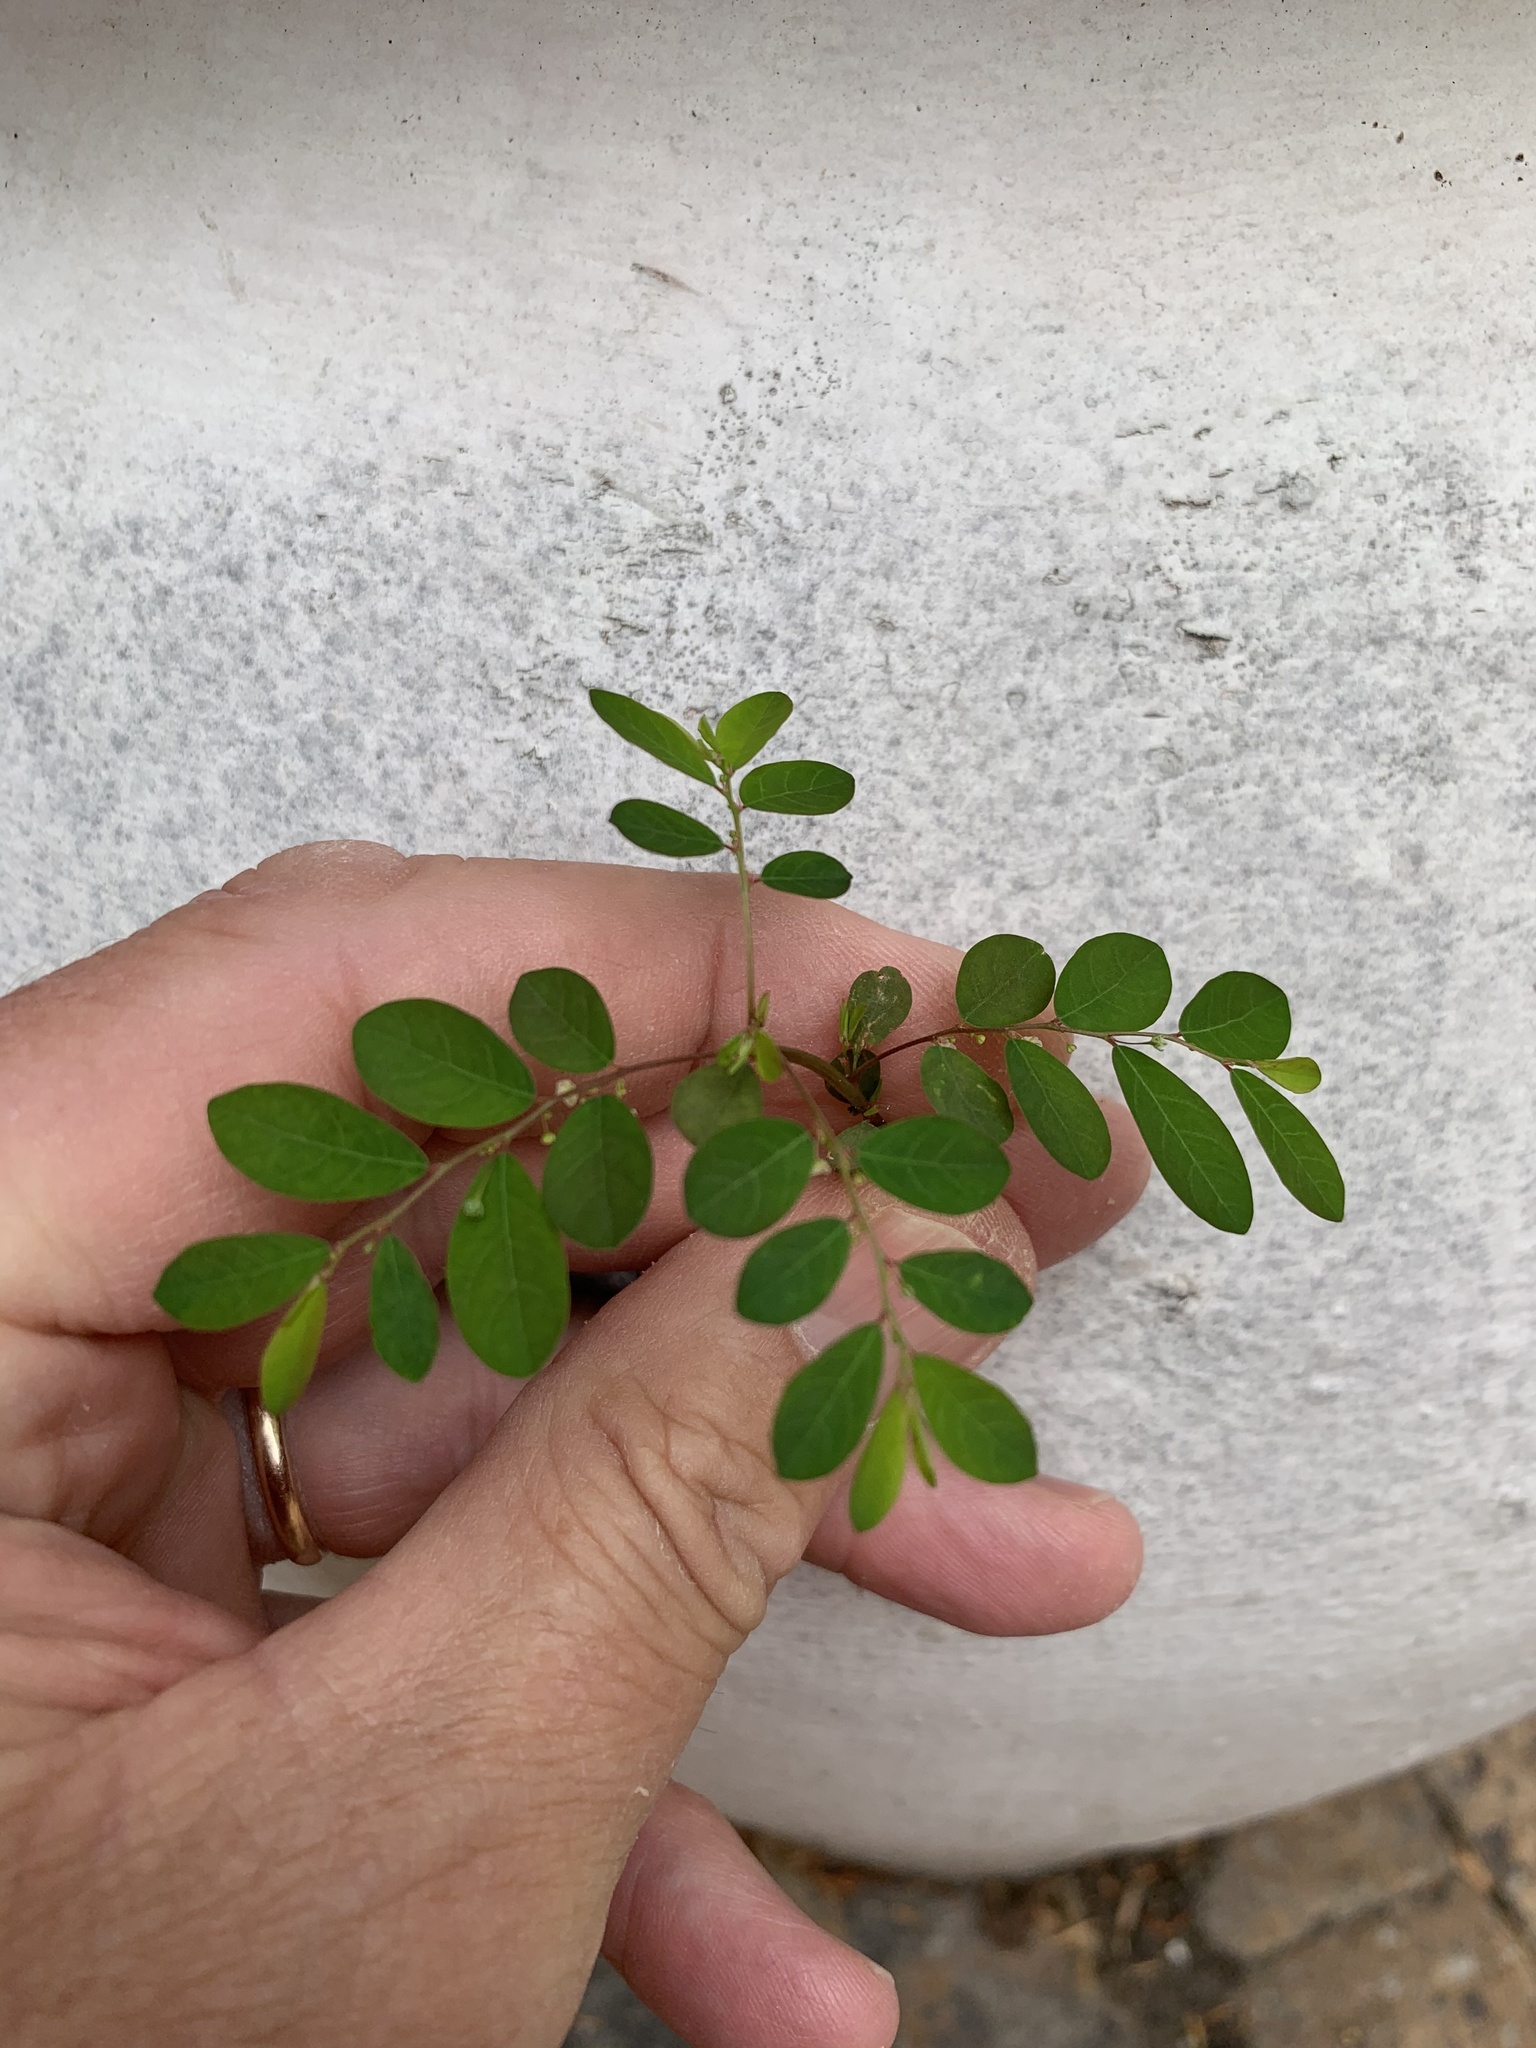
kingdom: Plantae
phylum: Tracheophyta
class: Magnoliopsida
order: Malpighiales
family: Phyllanthaceae
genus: Phyllanthus
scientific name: Phyllanthus tenellus
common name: Mascarene island leaf-flower
